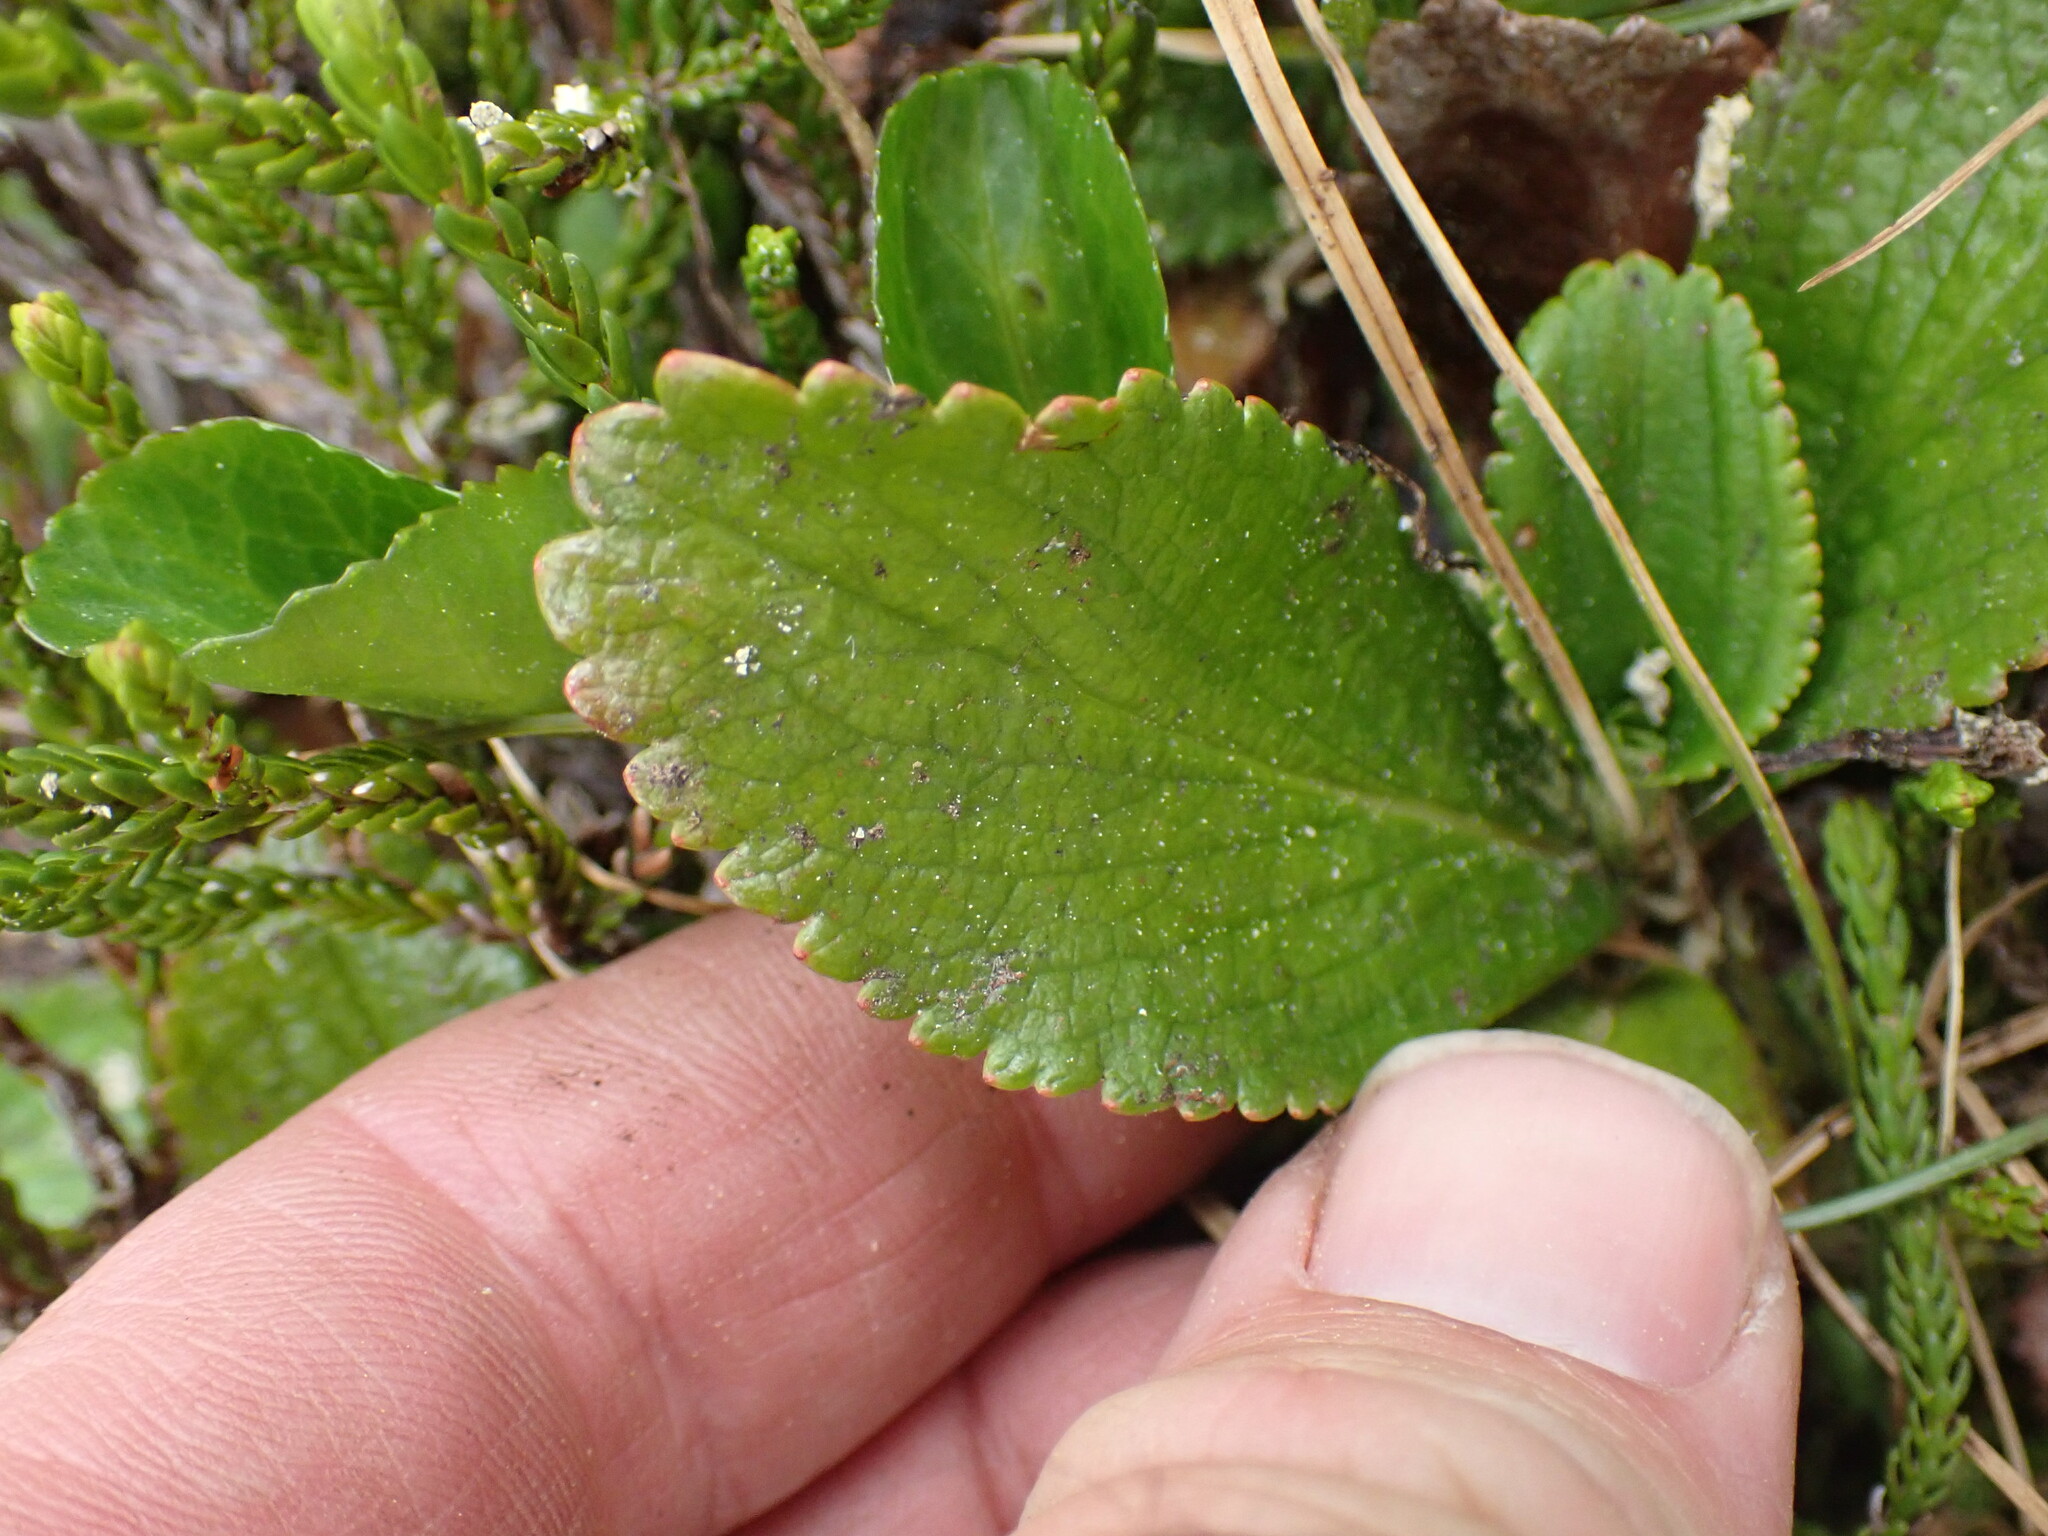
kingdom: Plantae
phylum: Tracheophyta
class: Magnoliopsida
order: Saxifragales
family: Saxifragaceae
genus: Leptarrhena
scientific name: Leptarrhena pyrolifolia
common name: Leatherleaf-saxifrage
